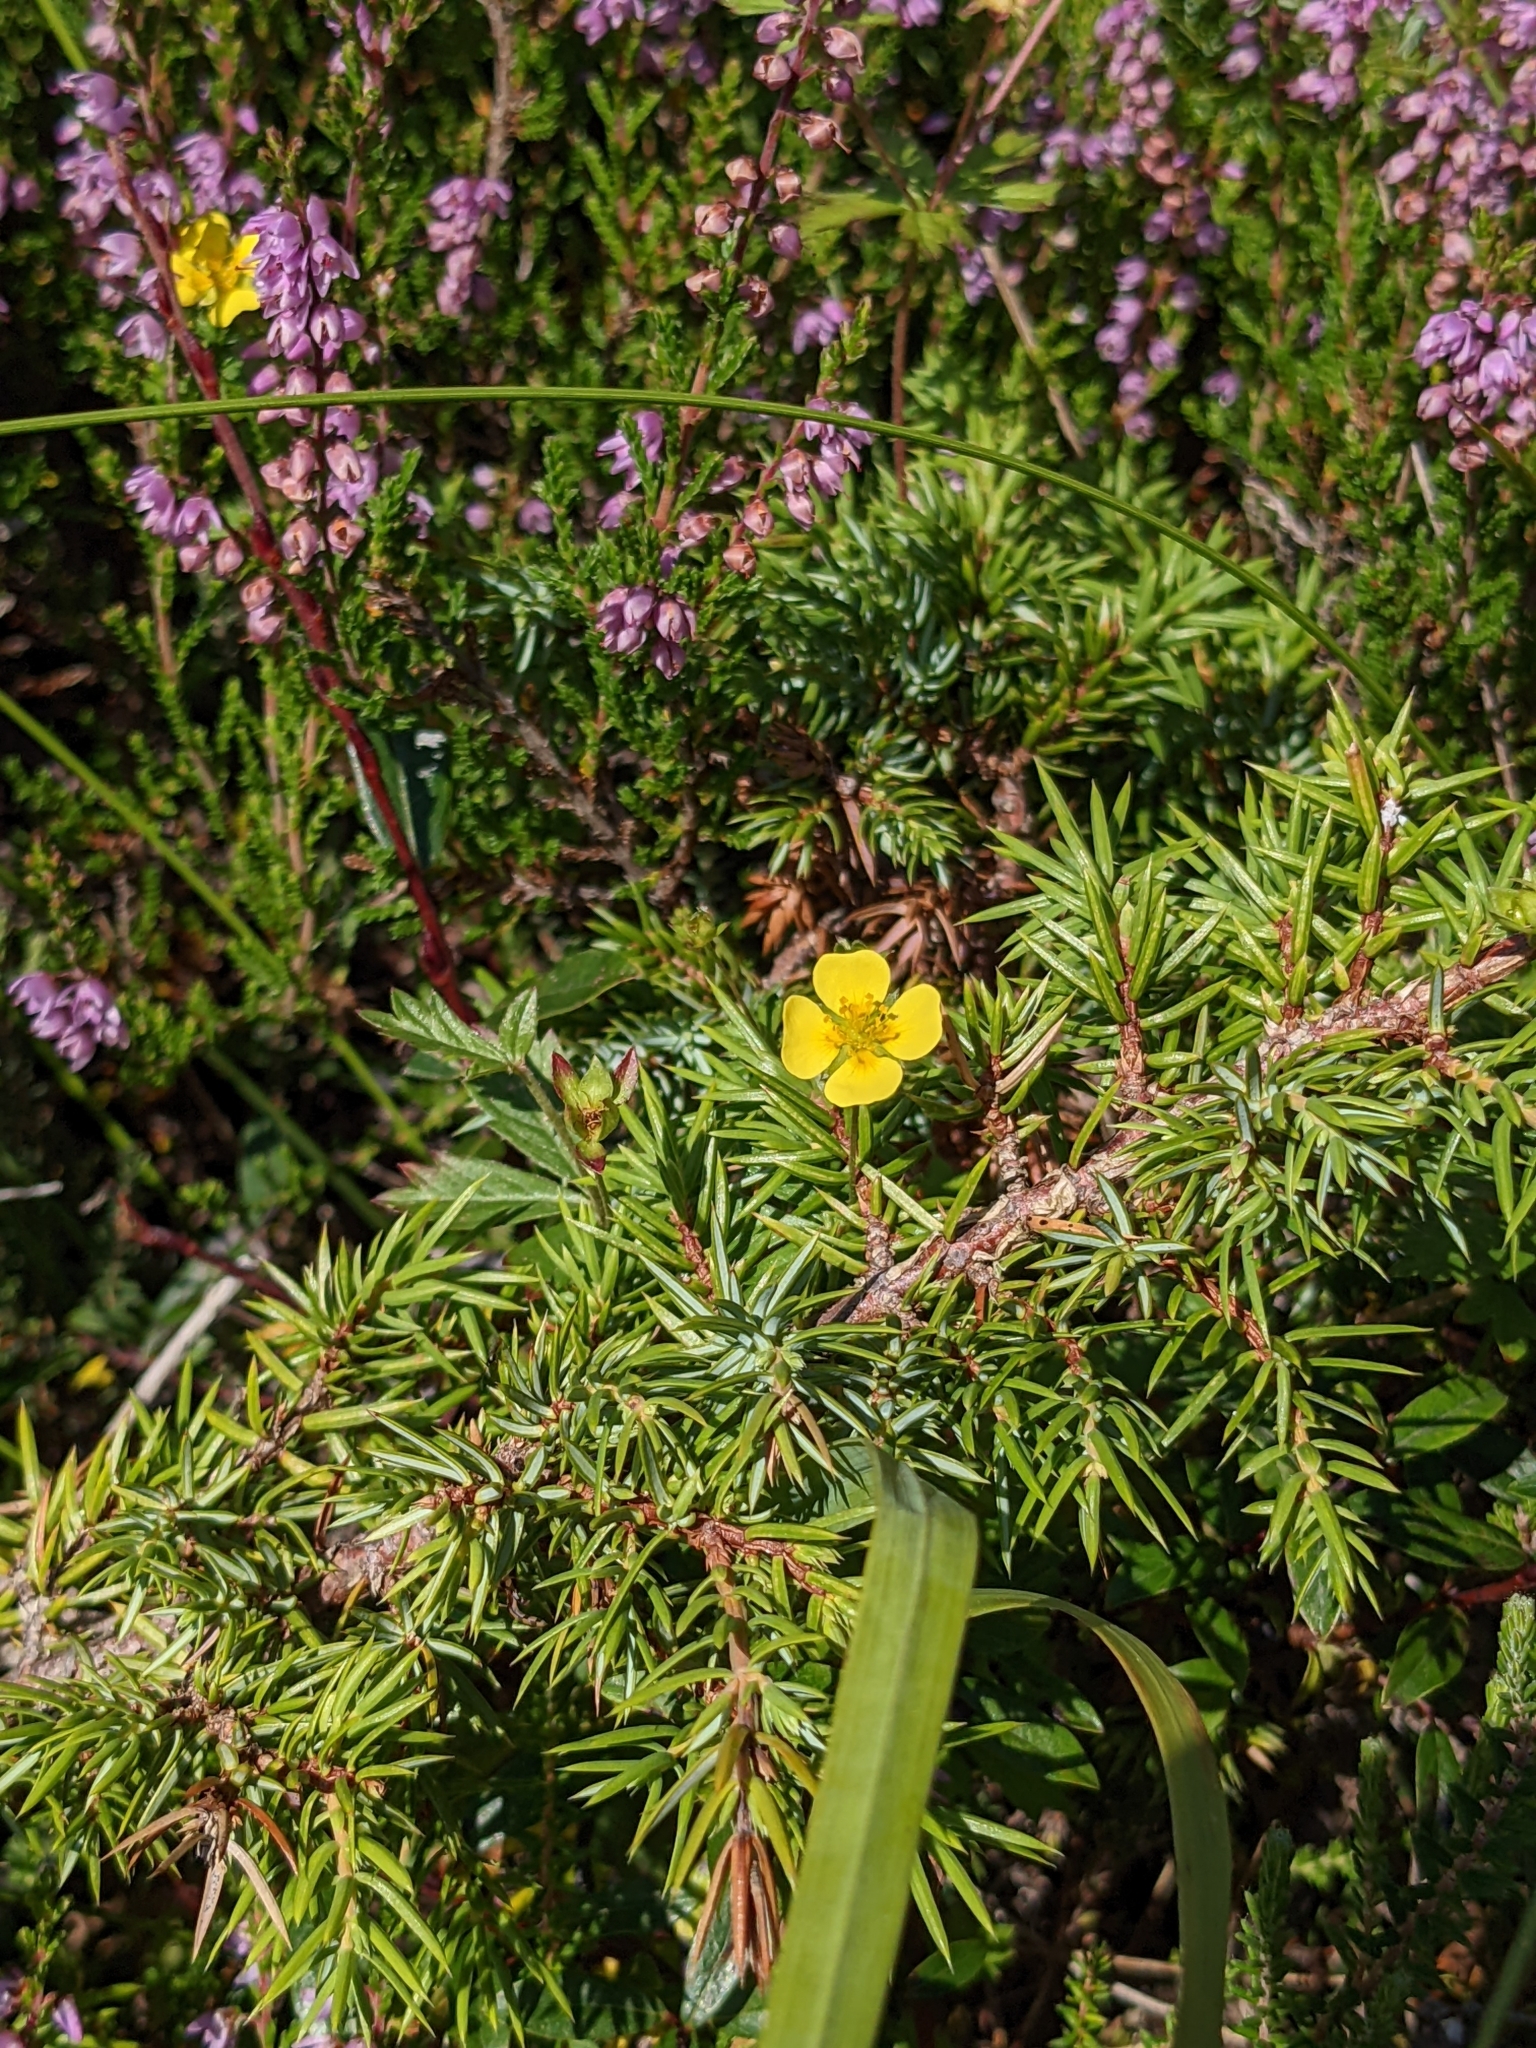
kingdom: Plantae
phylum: Tracheophyta
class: Magnoliopsida
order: Rosales
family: Rosaceae
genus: Potentilla
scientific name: Potentilla erecta
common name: Tormentil
